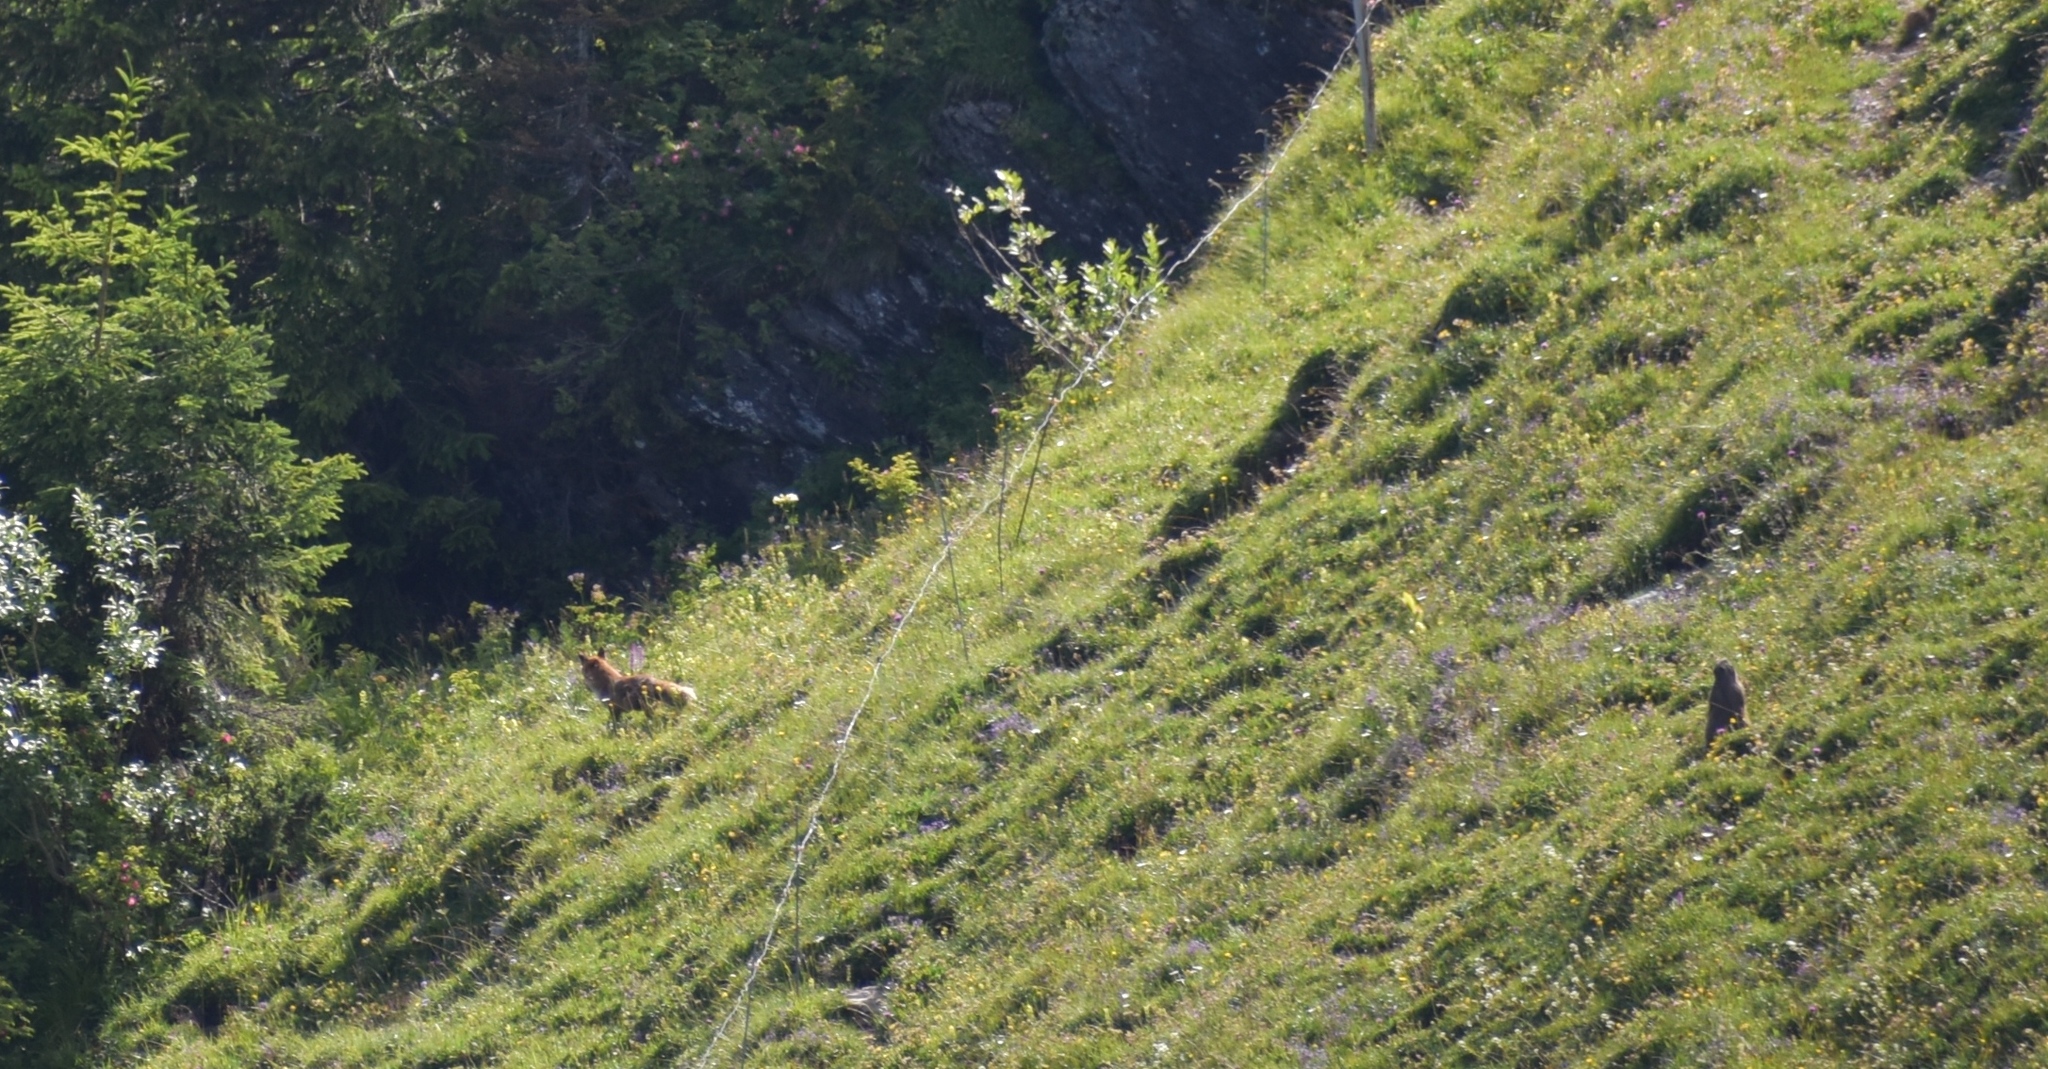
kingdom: Animalia
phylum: Chordata
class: Mammalia
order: Rodentia
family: Sciuridae
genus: Marmota
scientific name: Marmota marmota
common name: Alpine marmot
